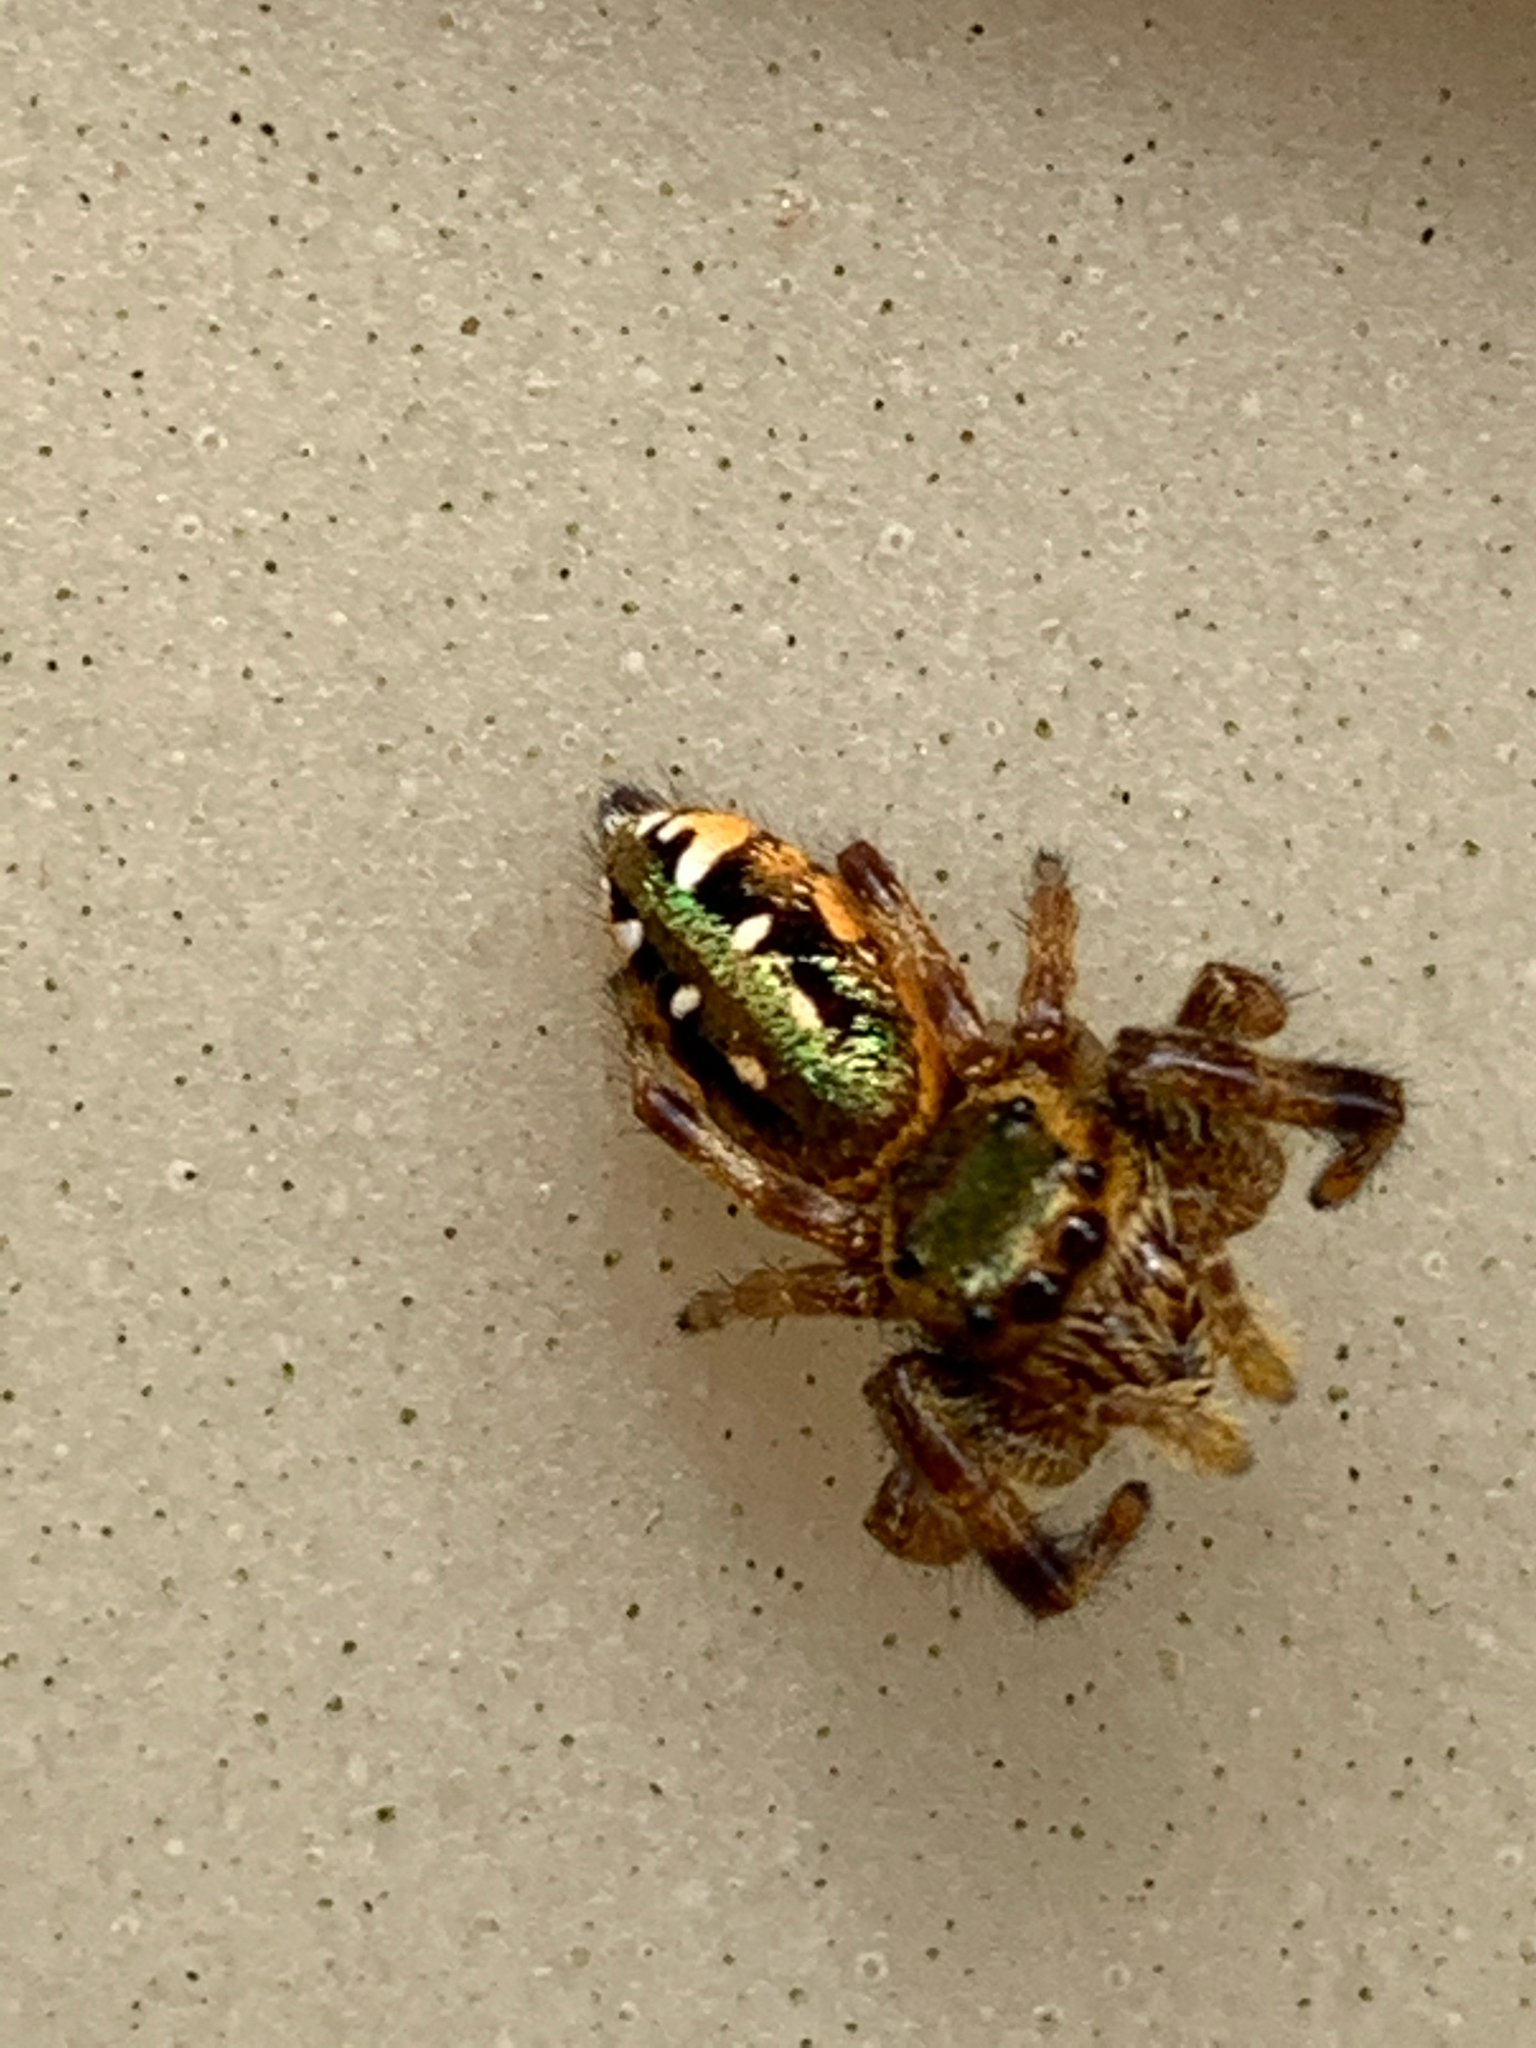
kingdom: Animalia
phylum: Arthropoda
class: Arachnida
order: Araneae
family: Salticidae
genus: Paraphidippus
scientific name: Paraphidippus aurantius
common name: Jumping spiders
